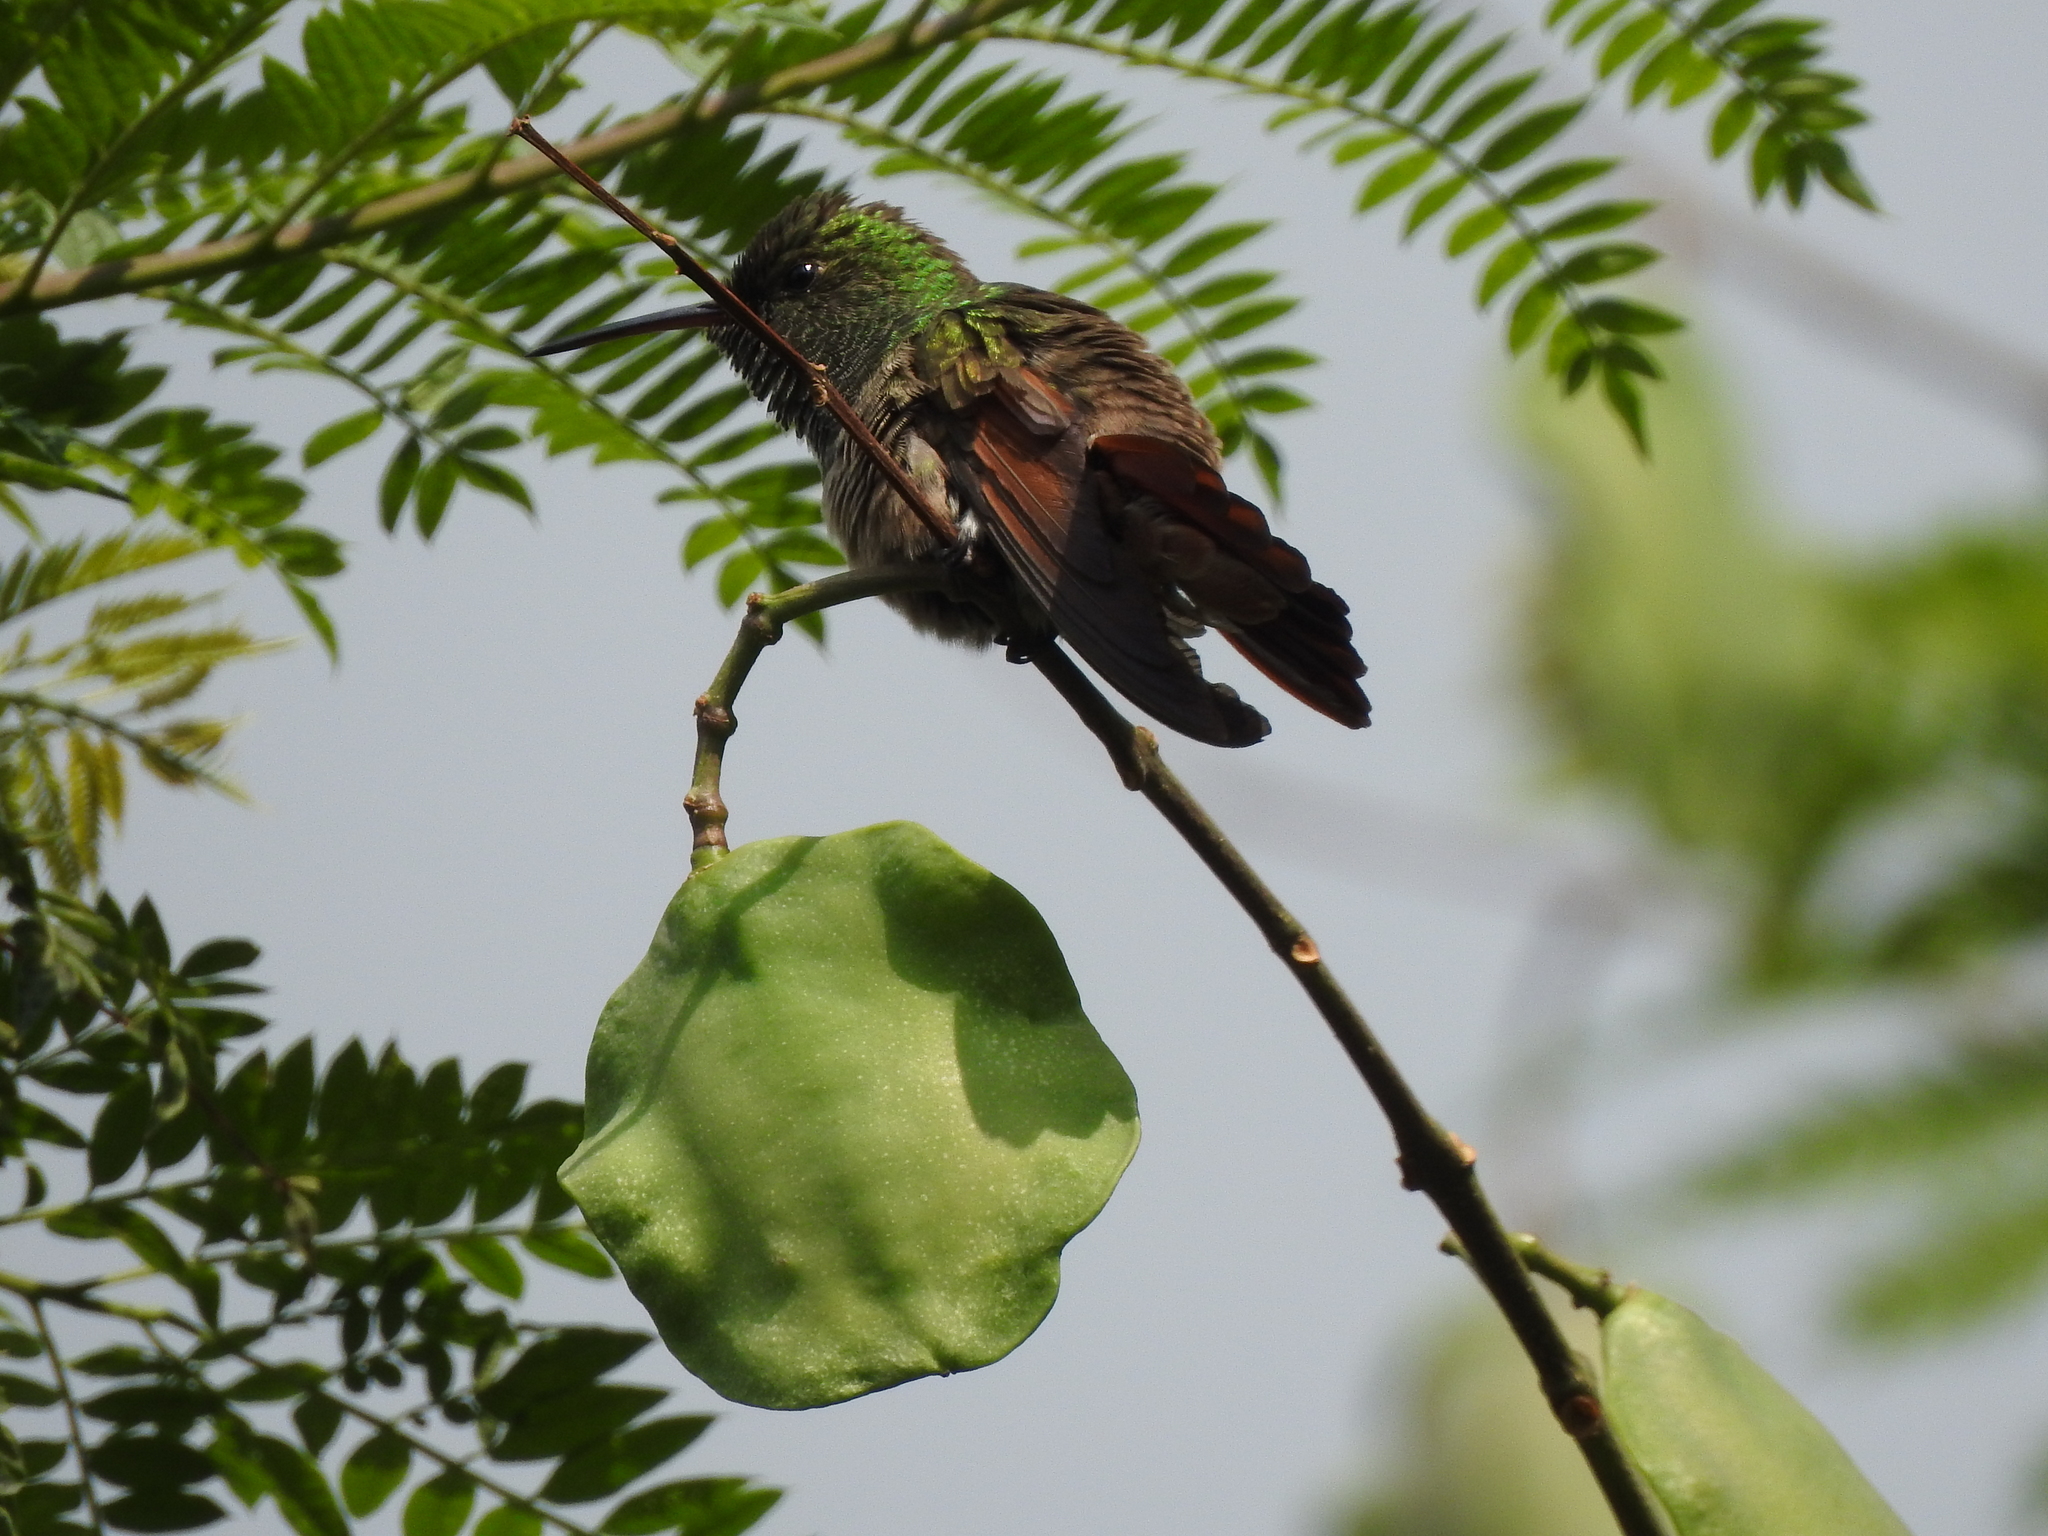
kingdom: Animalia
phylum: Chordata
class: Aves
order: Apodiformes
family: Trochilidae
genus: Saucerottia
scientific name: Saucerottia beryllina
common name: Berylline hummingbird
